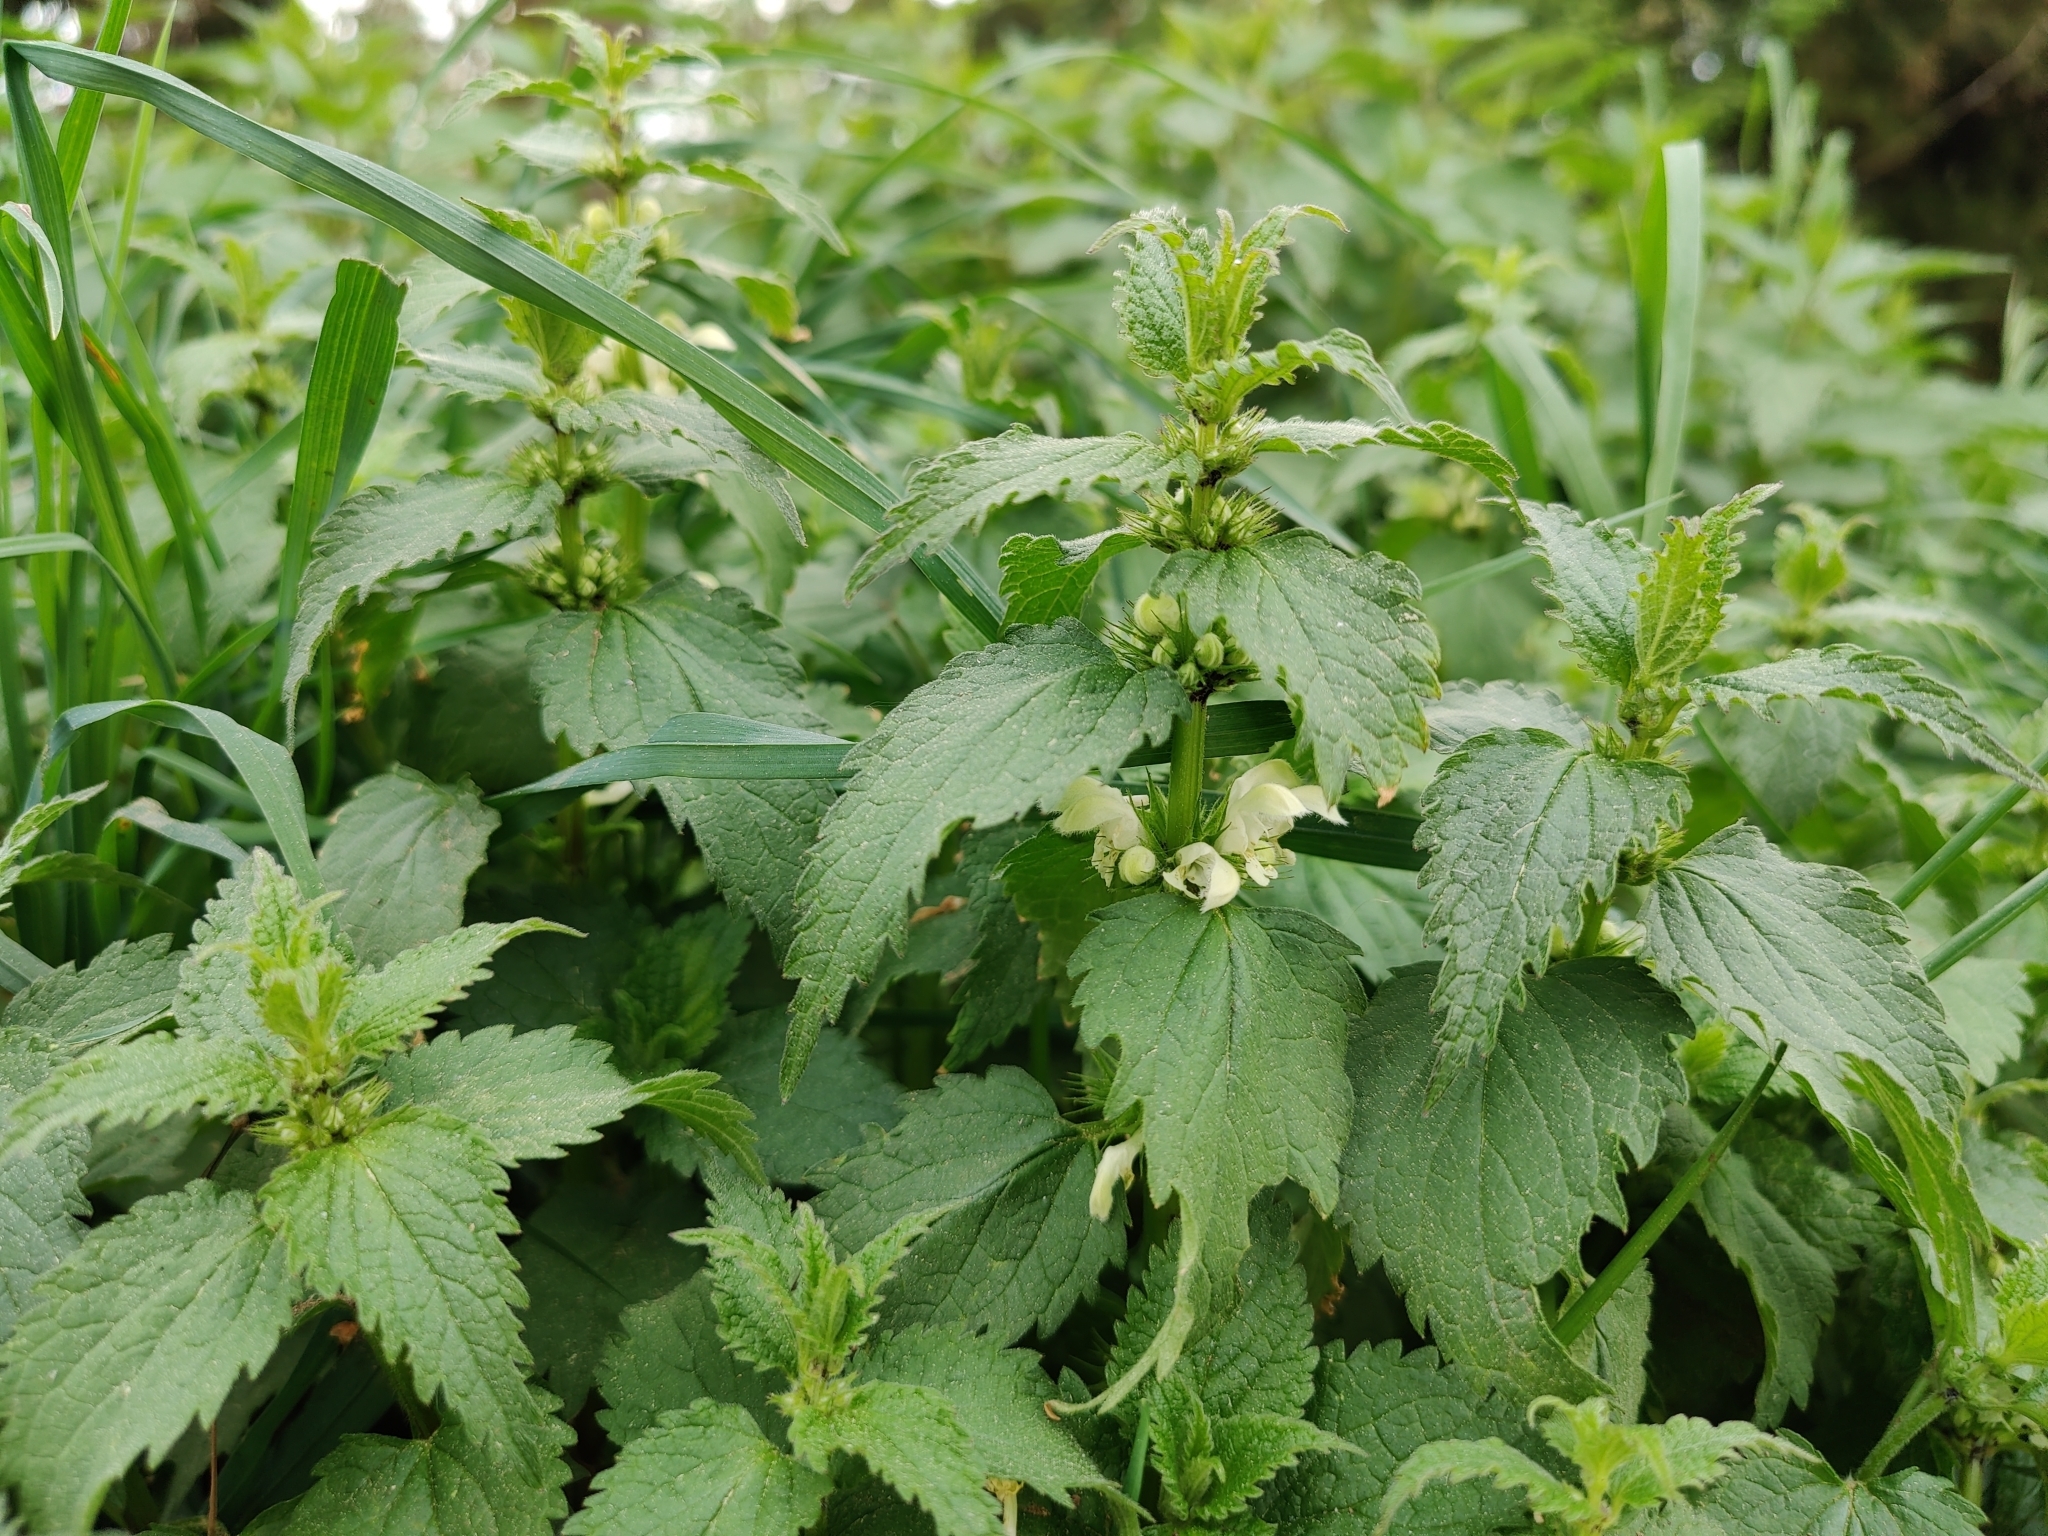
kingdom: Plantae
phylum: Tracheophyta
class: Magnoliopsida
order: Lamiales
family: Lamiaceae
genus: Lamium
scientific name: Lamium album
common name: White dead-nettle
